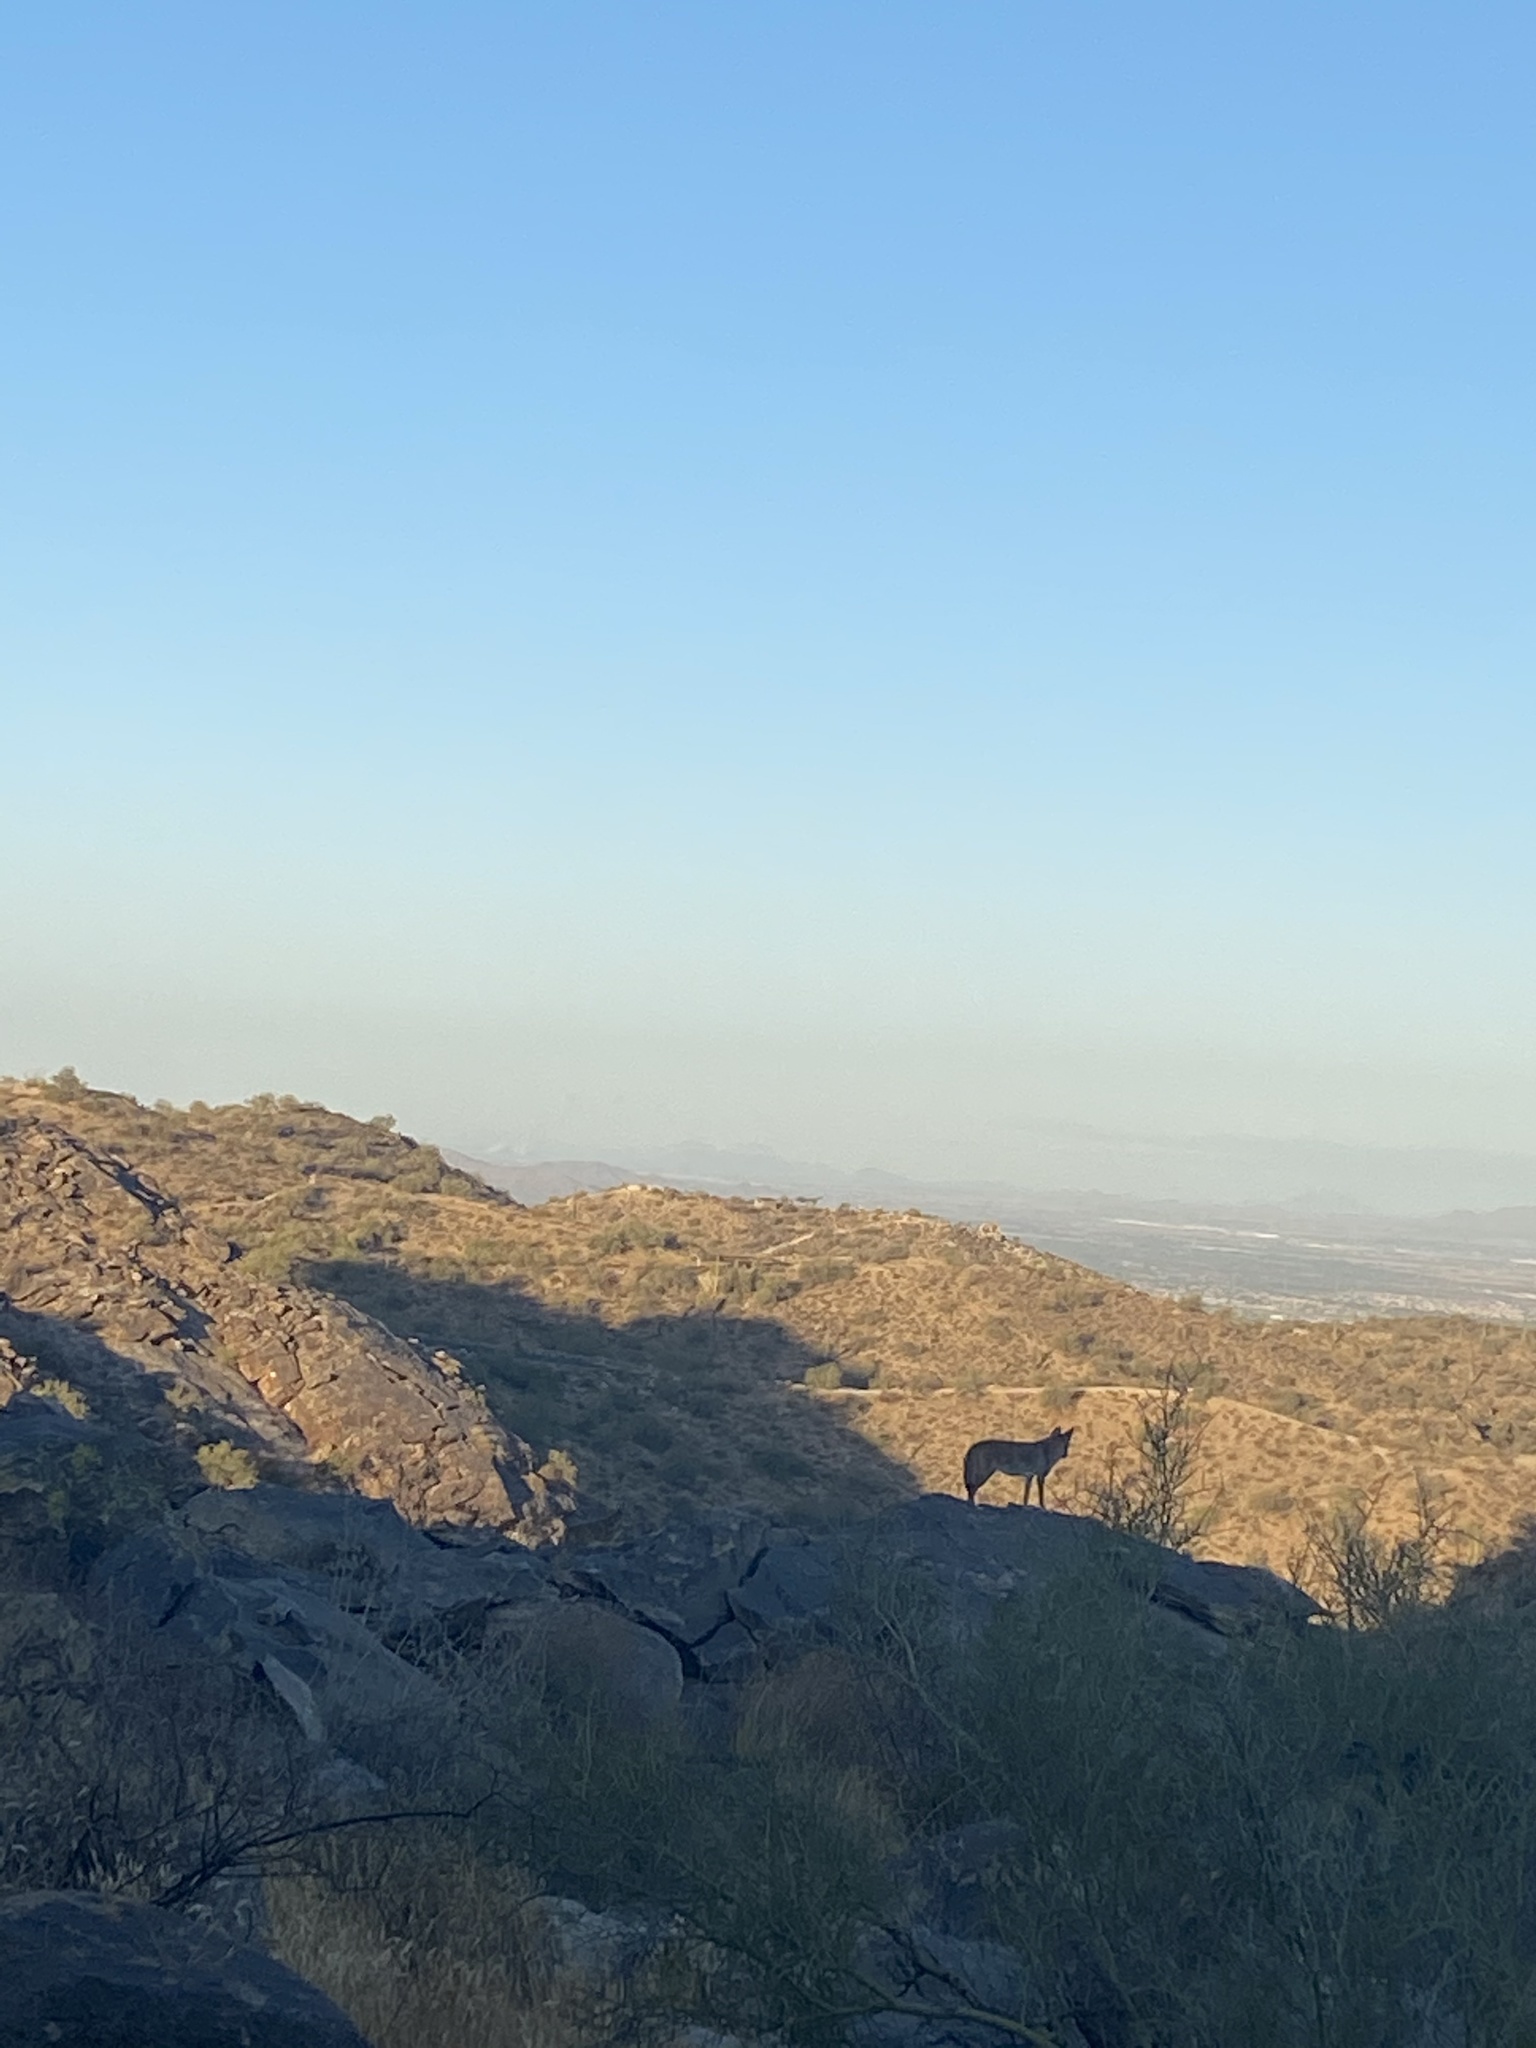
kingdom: Animalia
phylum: Chordata
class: Mammalia
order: Carnivora
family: Canidae
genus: Canis
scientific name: Canis latrans
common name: Coyote
